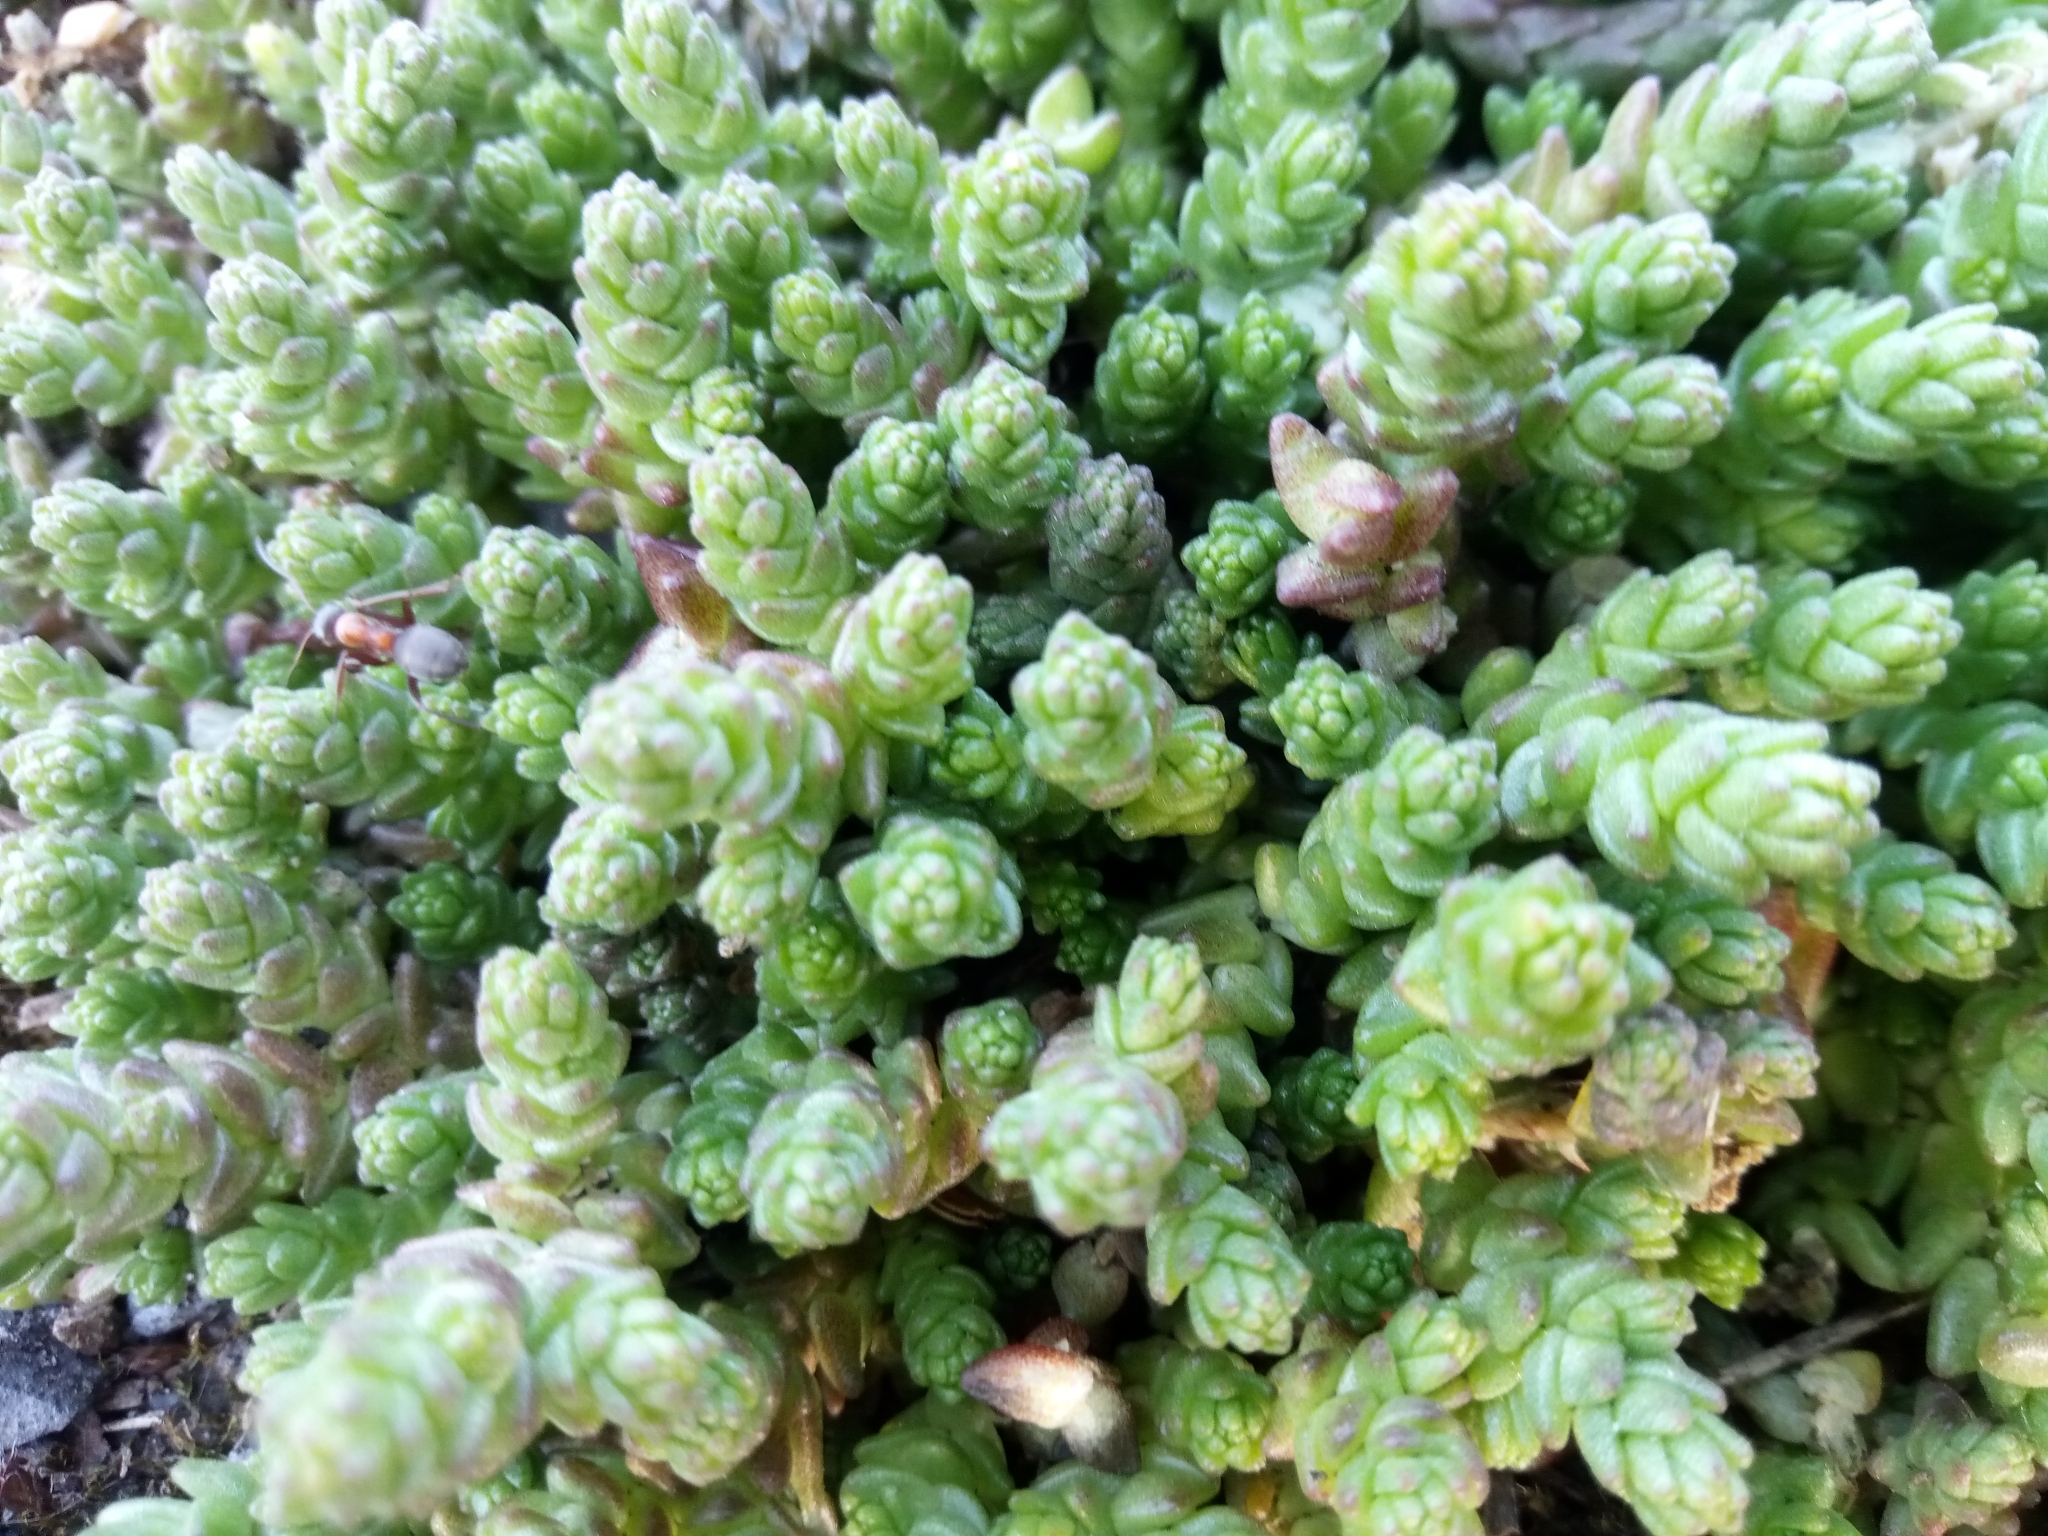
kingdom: Plantae
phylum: Tracheophyta
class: Magnoliopsida
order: Saxifragales
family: Crassulaceae
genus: Sedum
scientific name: Sedum acre
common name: Biting stonecrop
